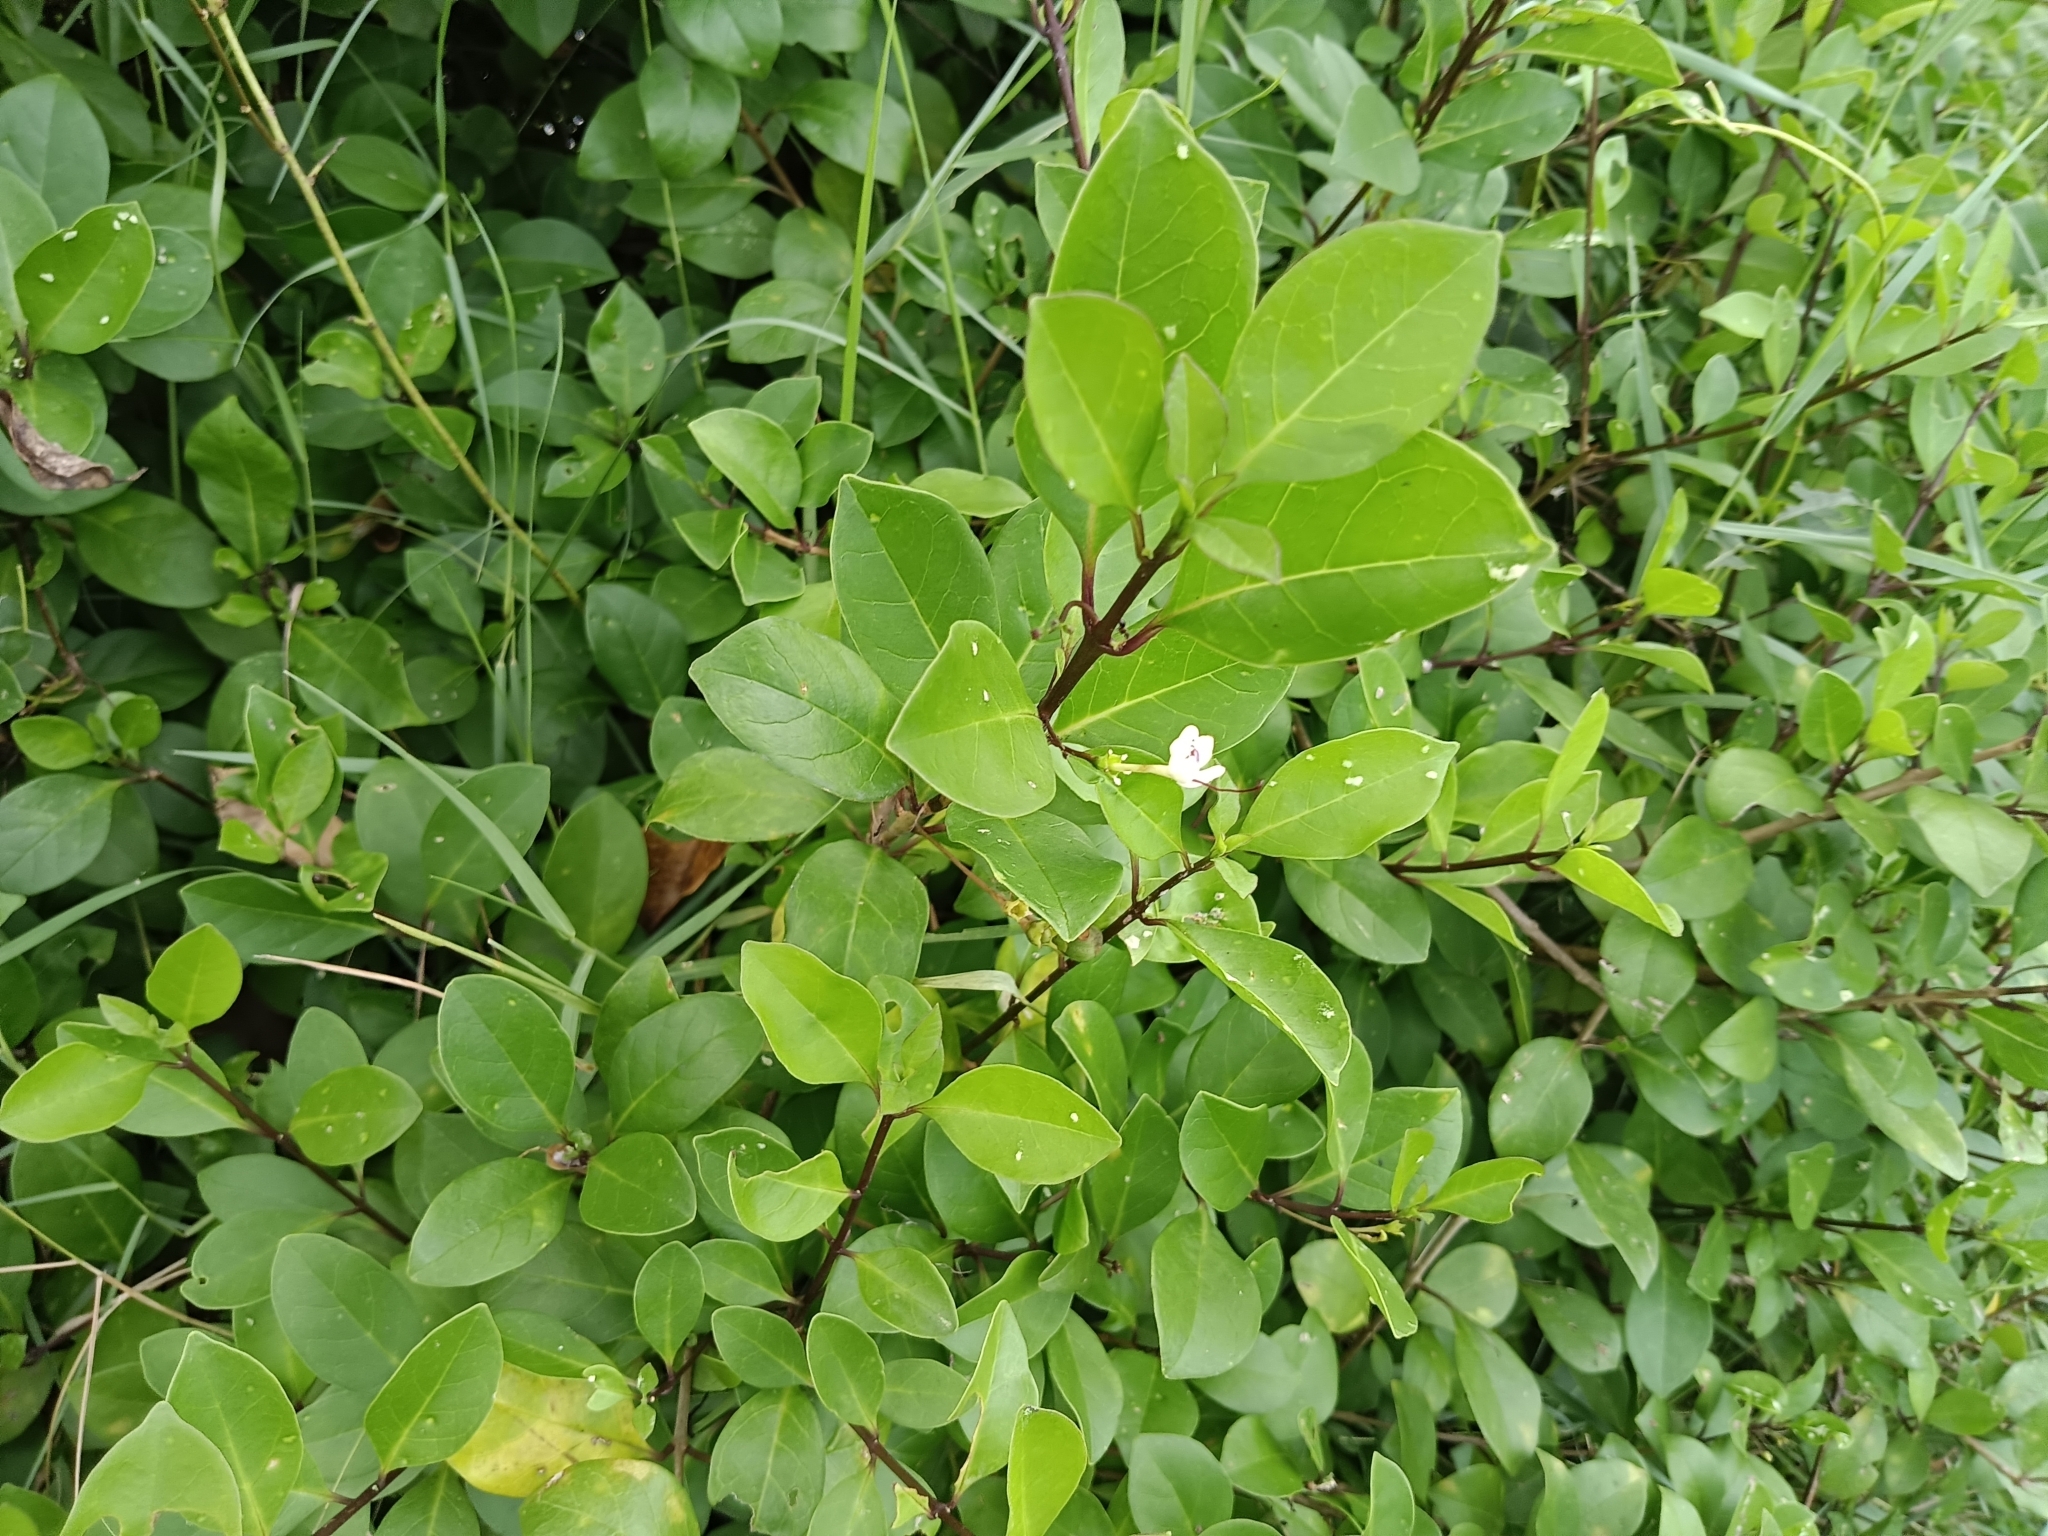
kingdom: Plantae
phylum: Tracheophyta
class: Magnoliopsida
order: Lamiales
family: Lamiaceae
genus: Volkameria
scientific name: Volkameria inermis
